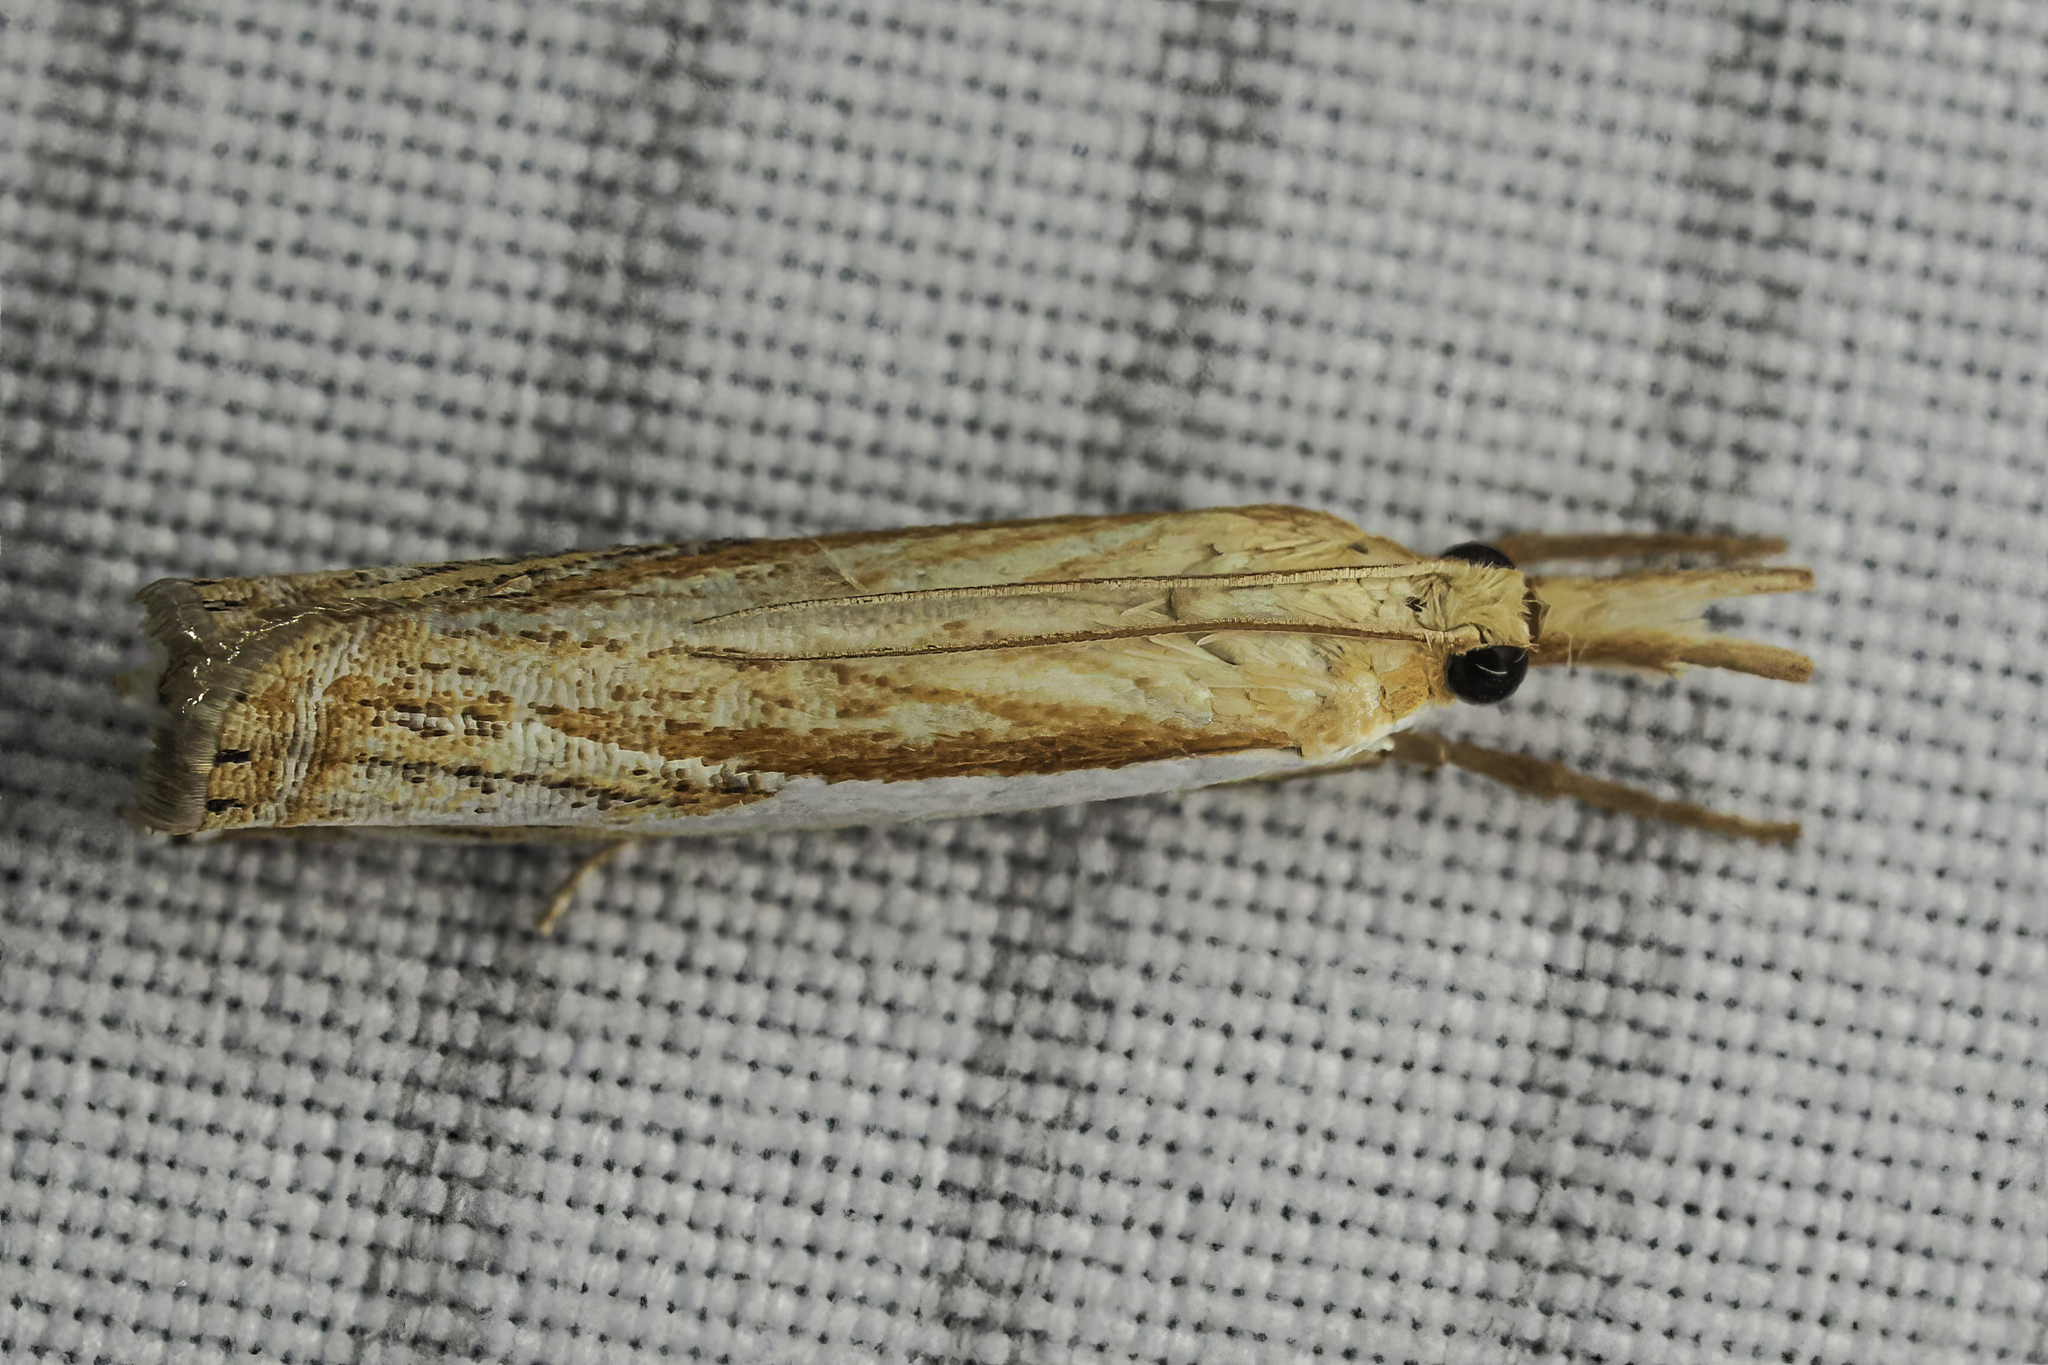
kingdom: Animalia
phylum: Arthropoda
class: Insecta
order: Lepidoptera
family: Crambidae
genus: Crambus
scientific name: Crambus agitatellus
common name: Double-banded grass-veneer
